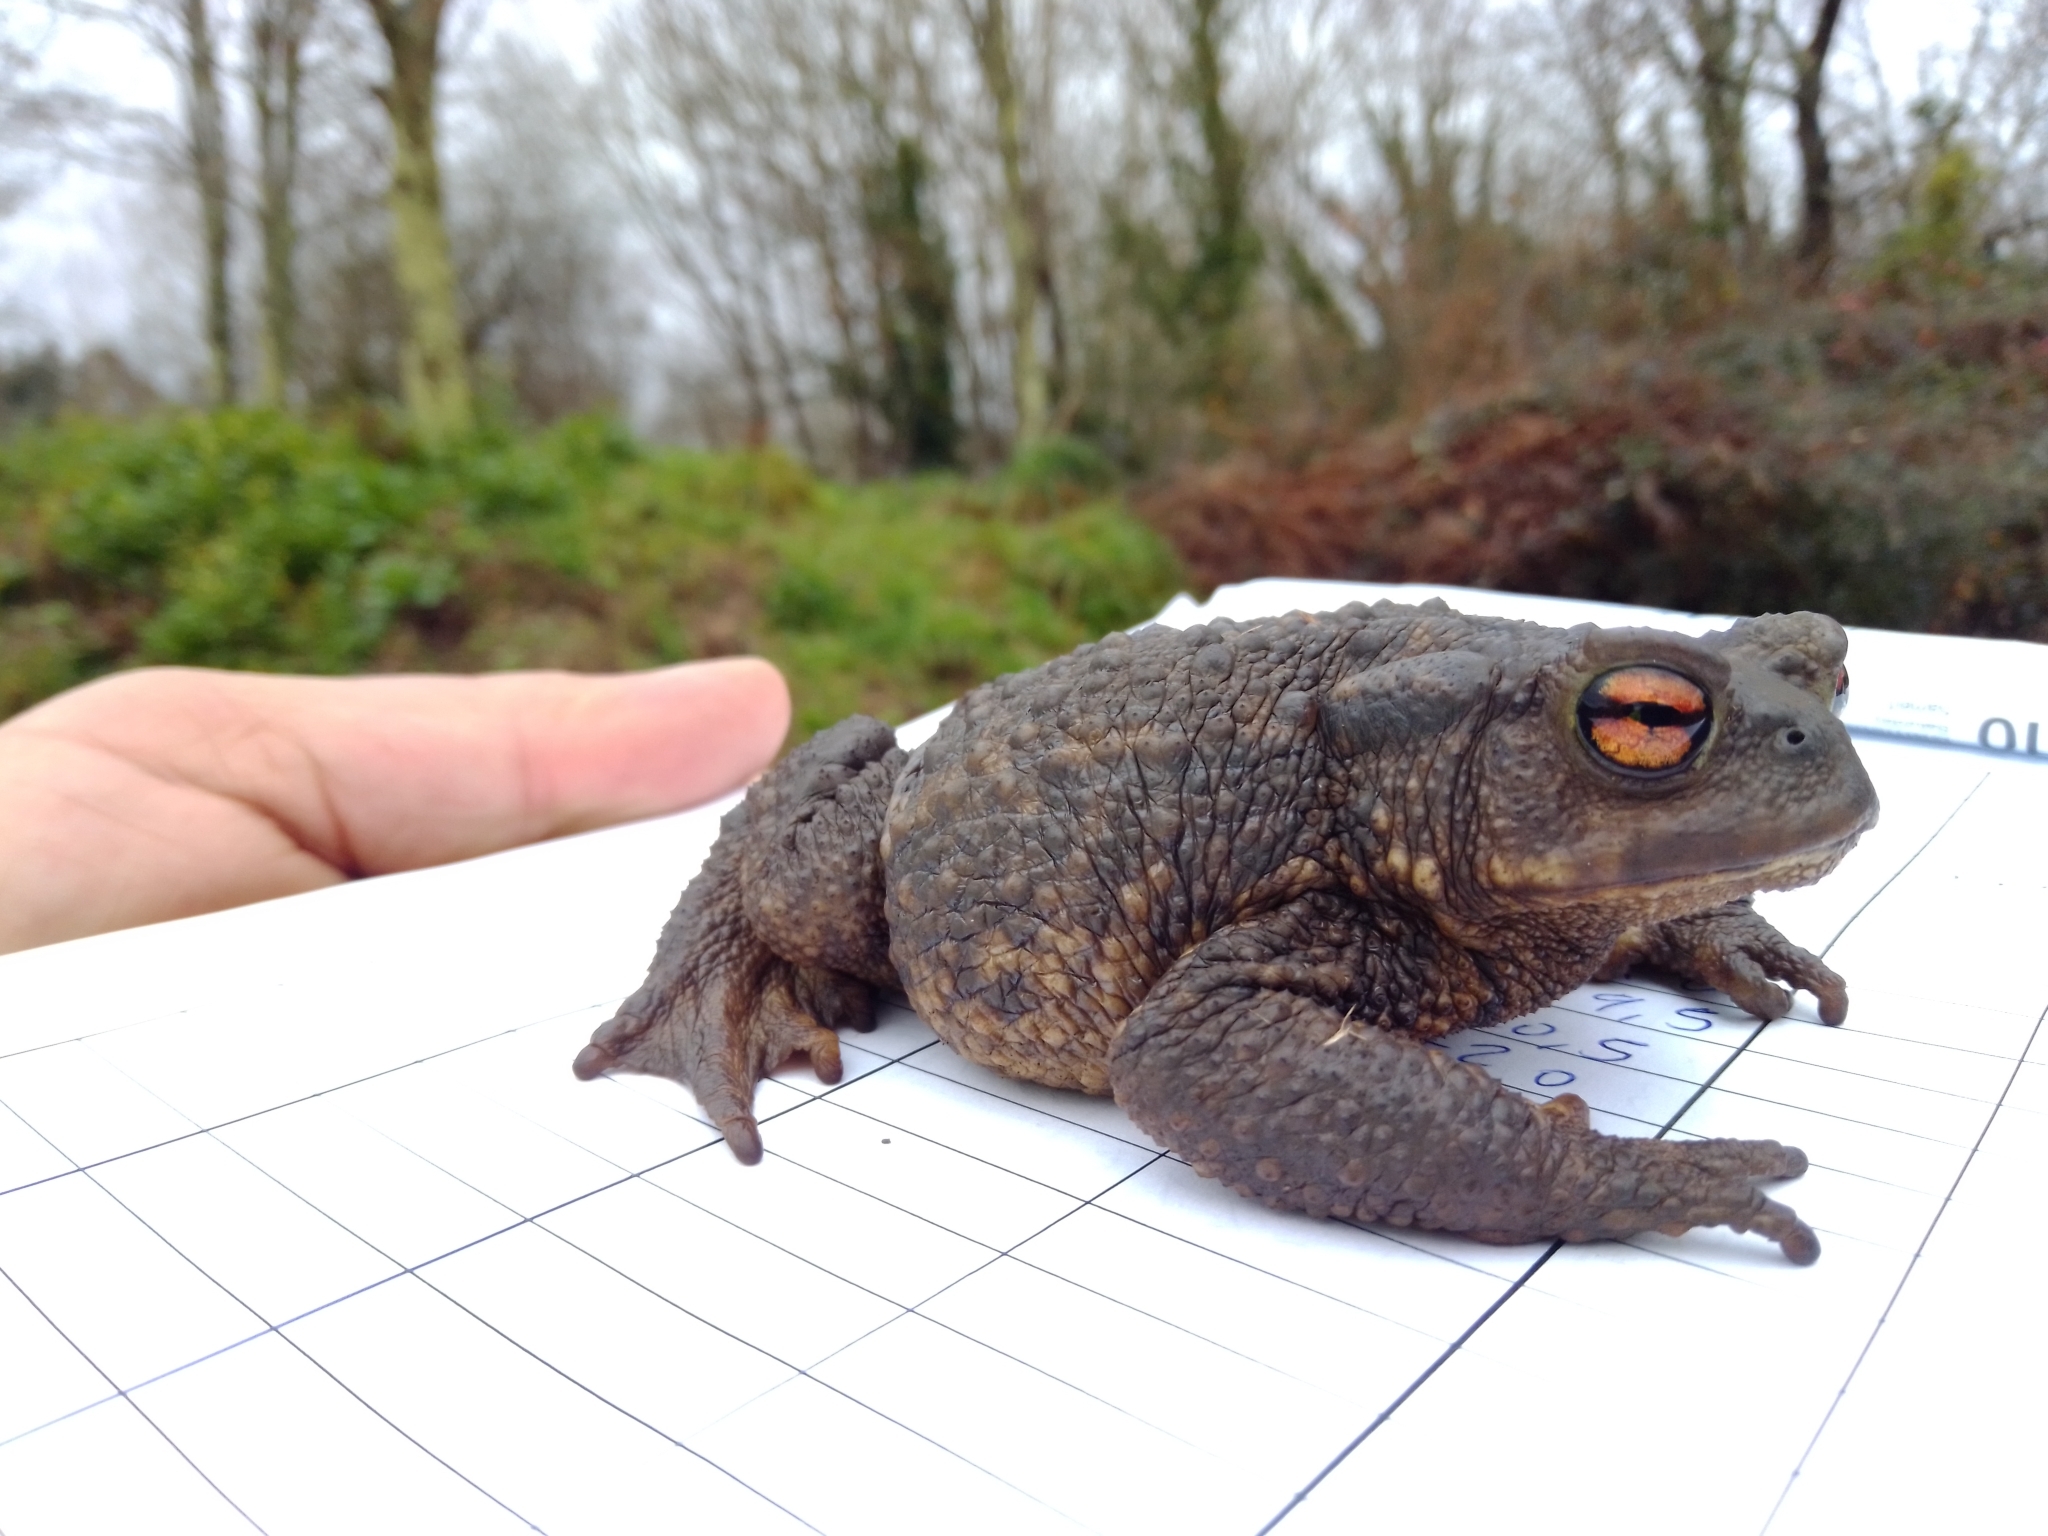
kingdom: Animalia
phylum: Chordata
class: Amphibia
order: Anura
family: Bufonidae
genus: Bufo
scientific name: Bufo spinosus
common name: Western common toad
